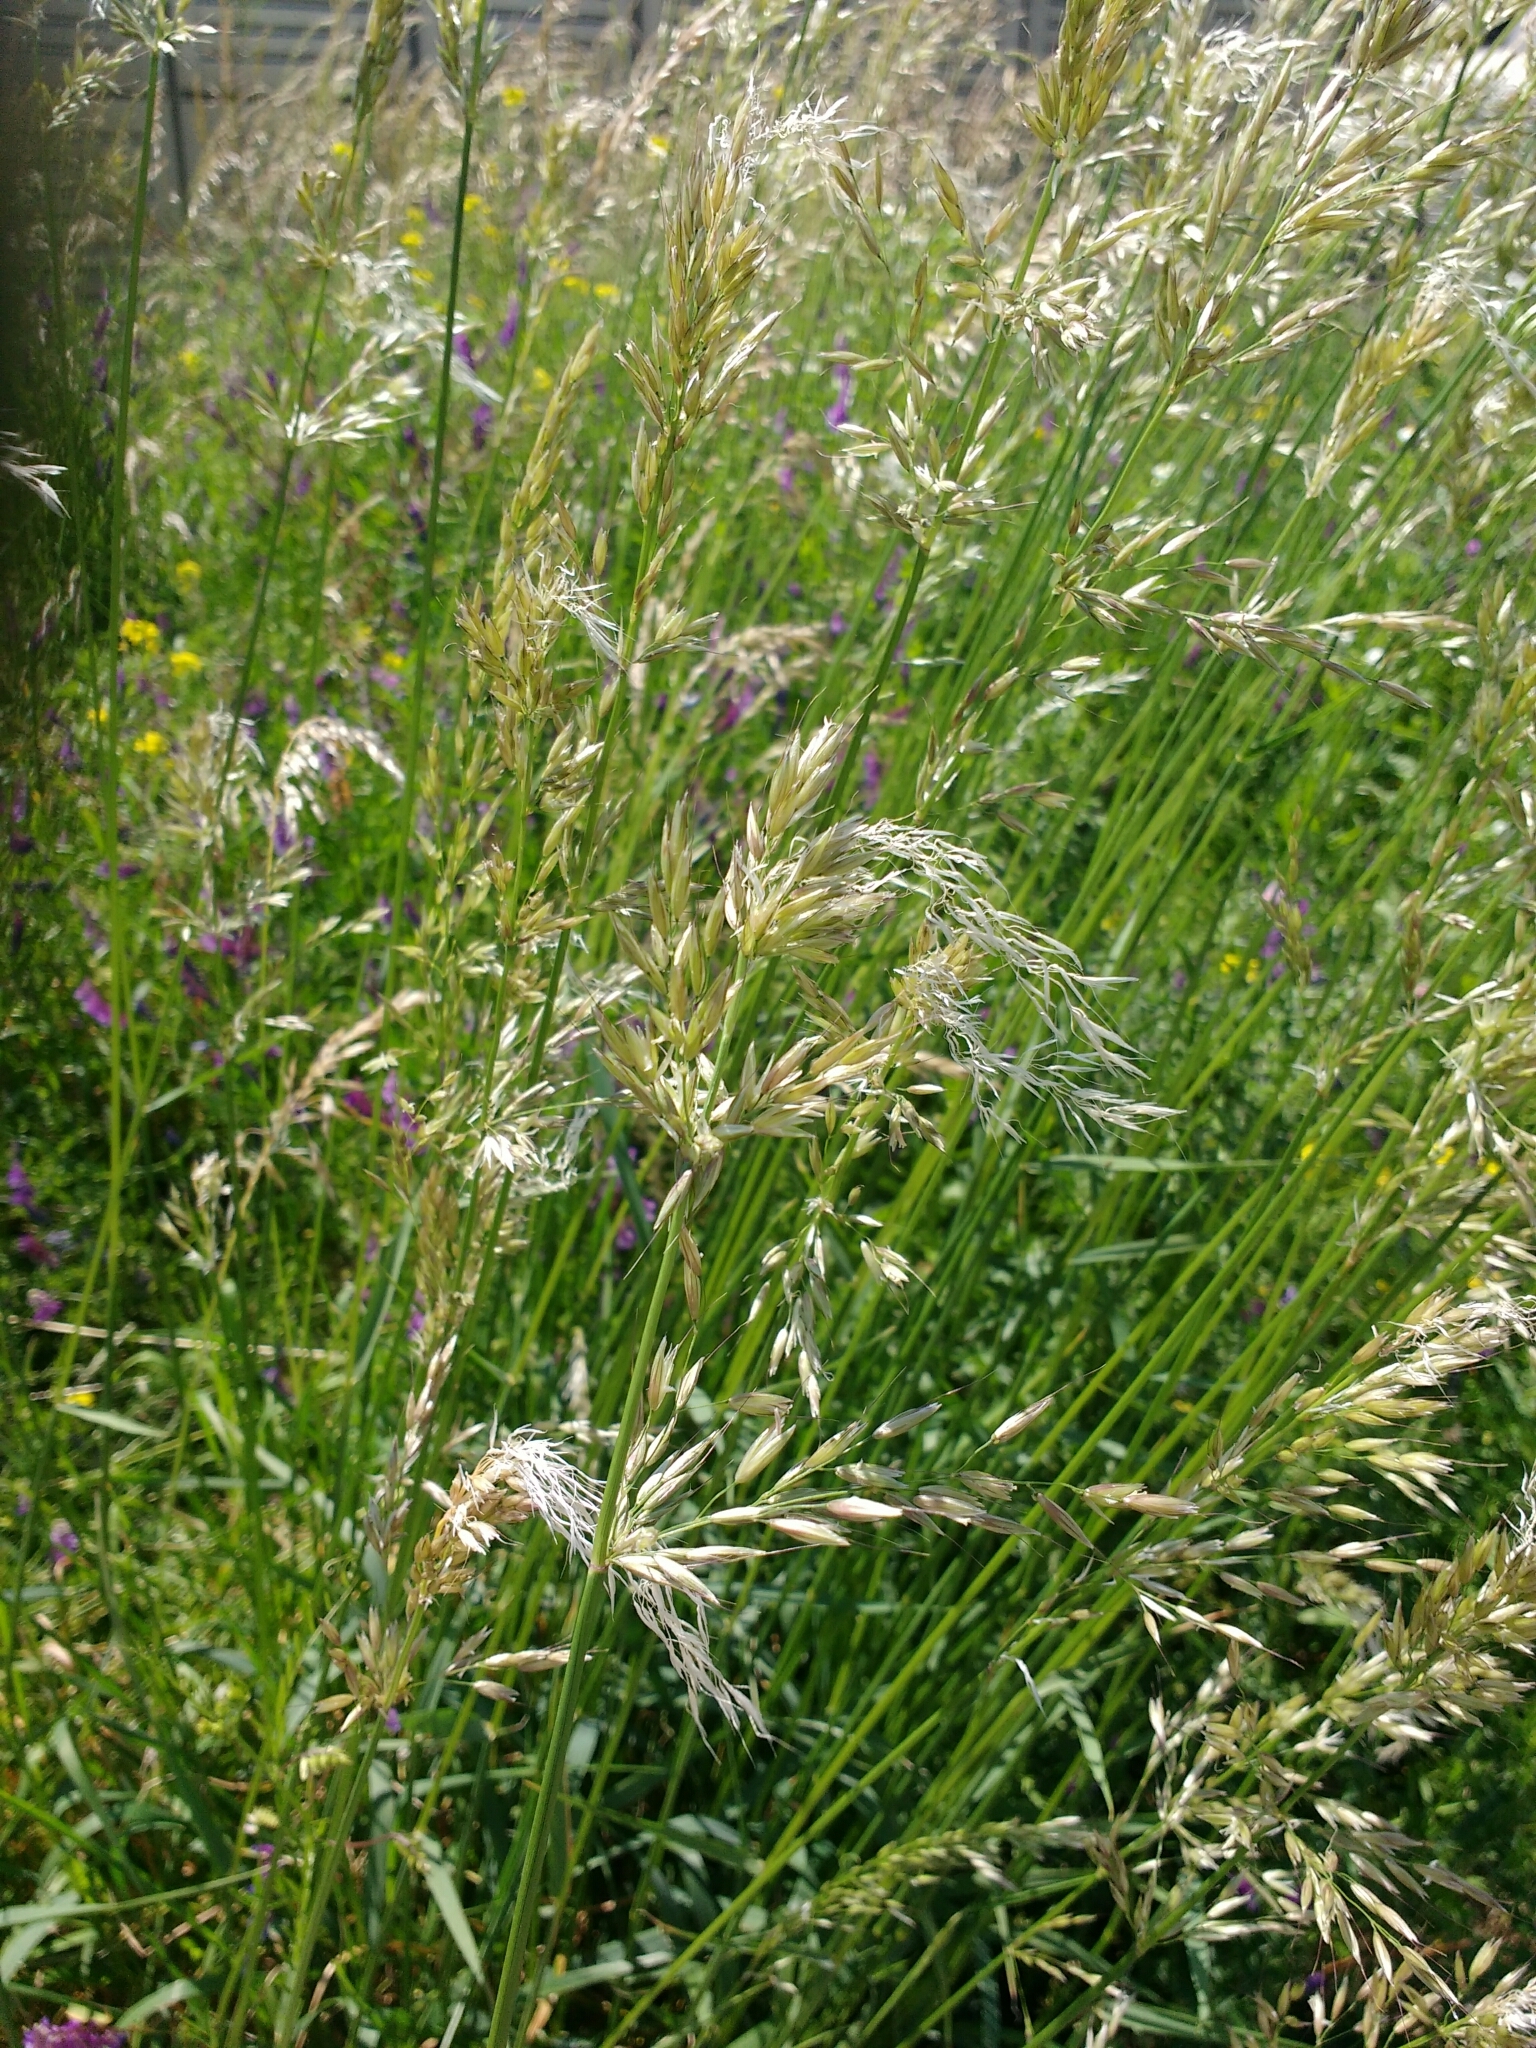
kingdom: Plantae
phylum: Tracheophyta
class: Liliopsida
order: Poales
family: Poaceae
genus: Arrhenatherum
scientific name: Arrhenatherum elatius
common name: Tall oatgrass
